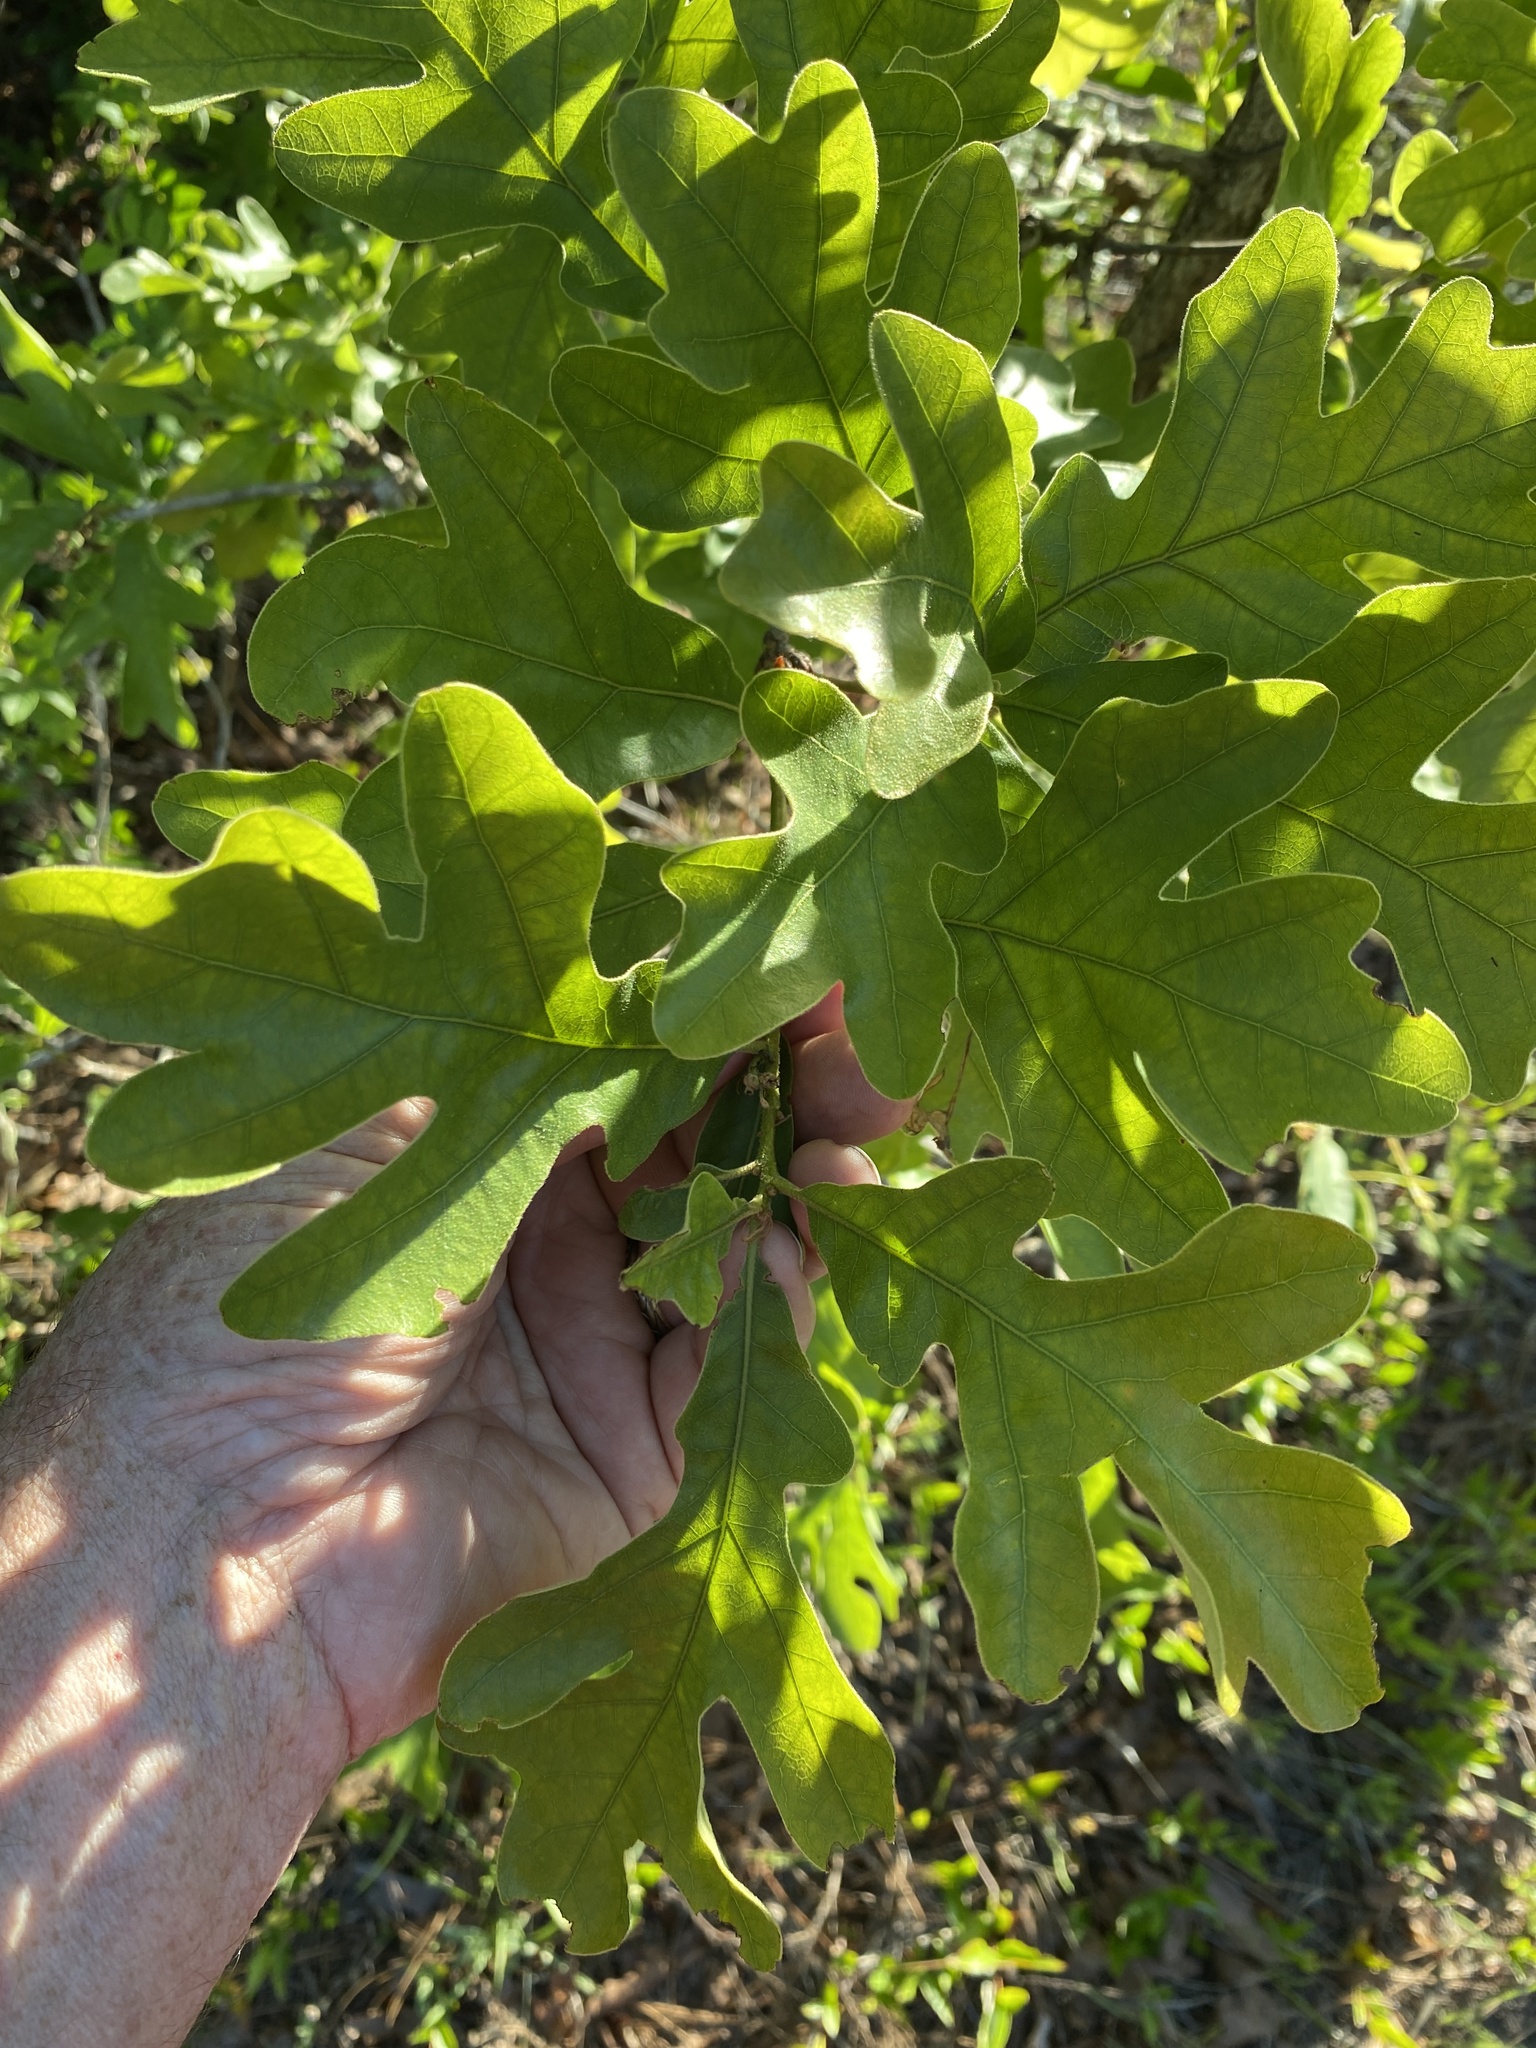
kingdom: Plantae
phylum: Tracheophyta
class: Magnoliopsida
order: Fagales
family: Fagaceae
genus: Quercus
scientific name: Quercus margaretiae
